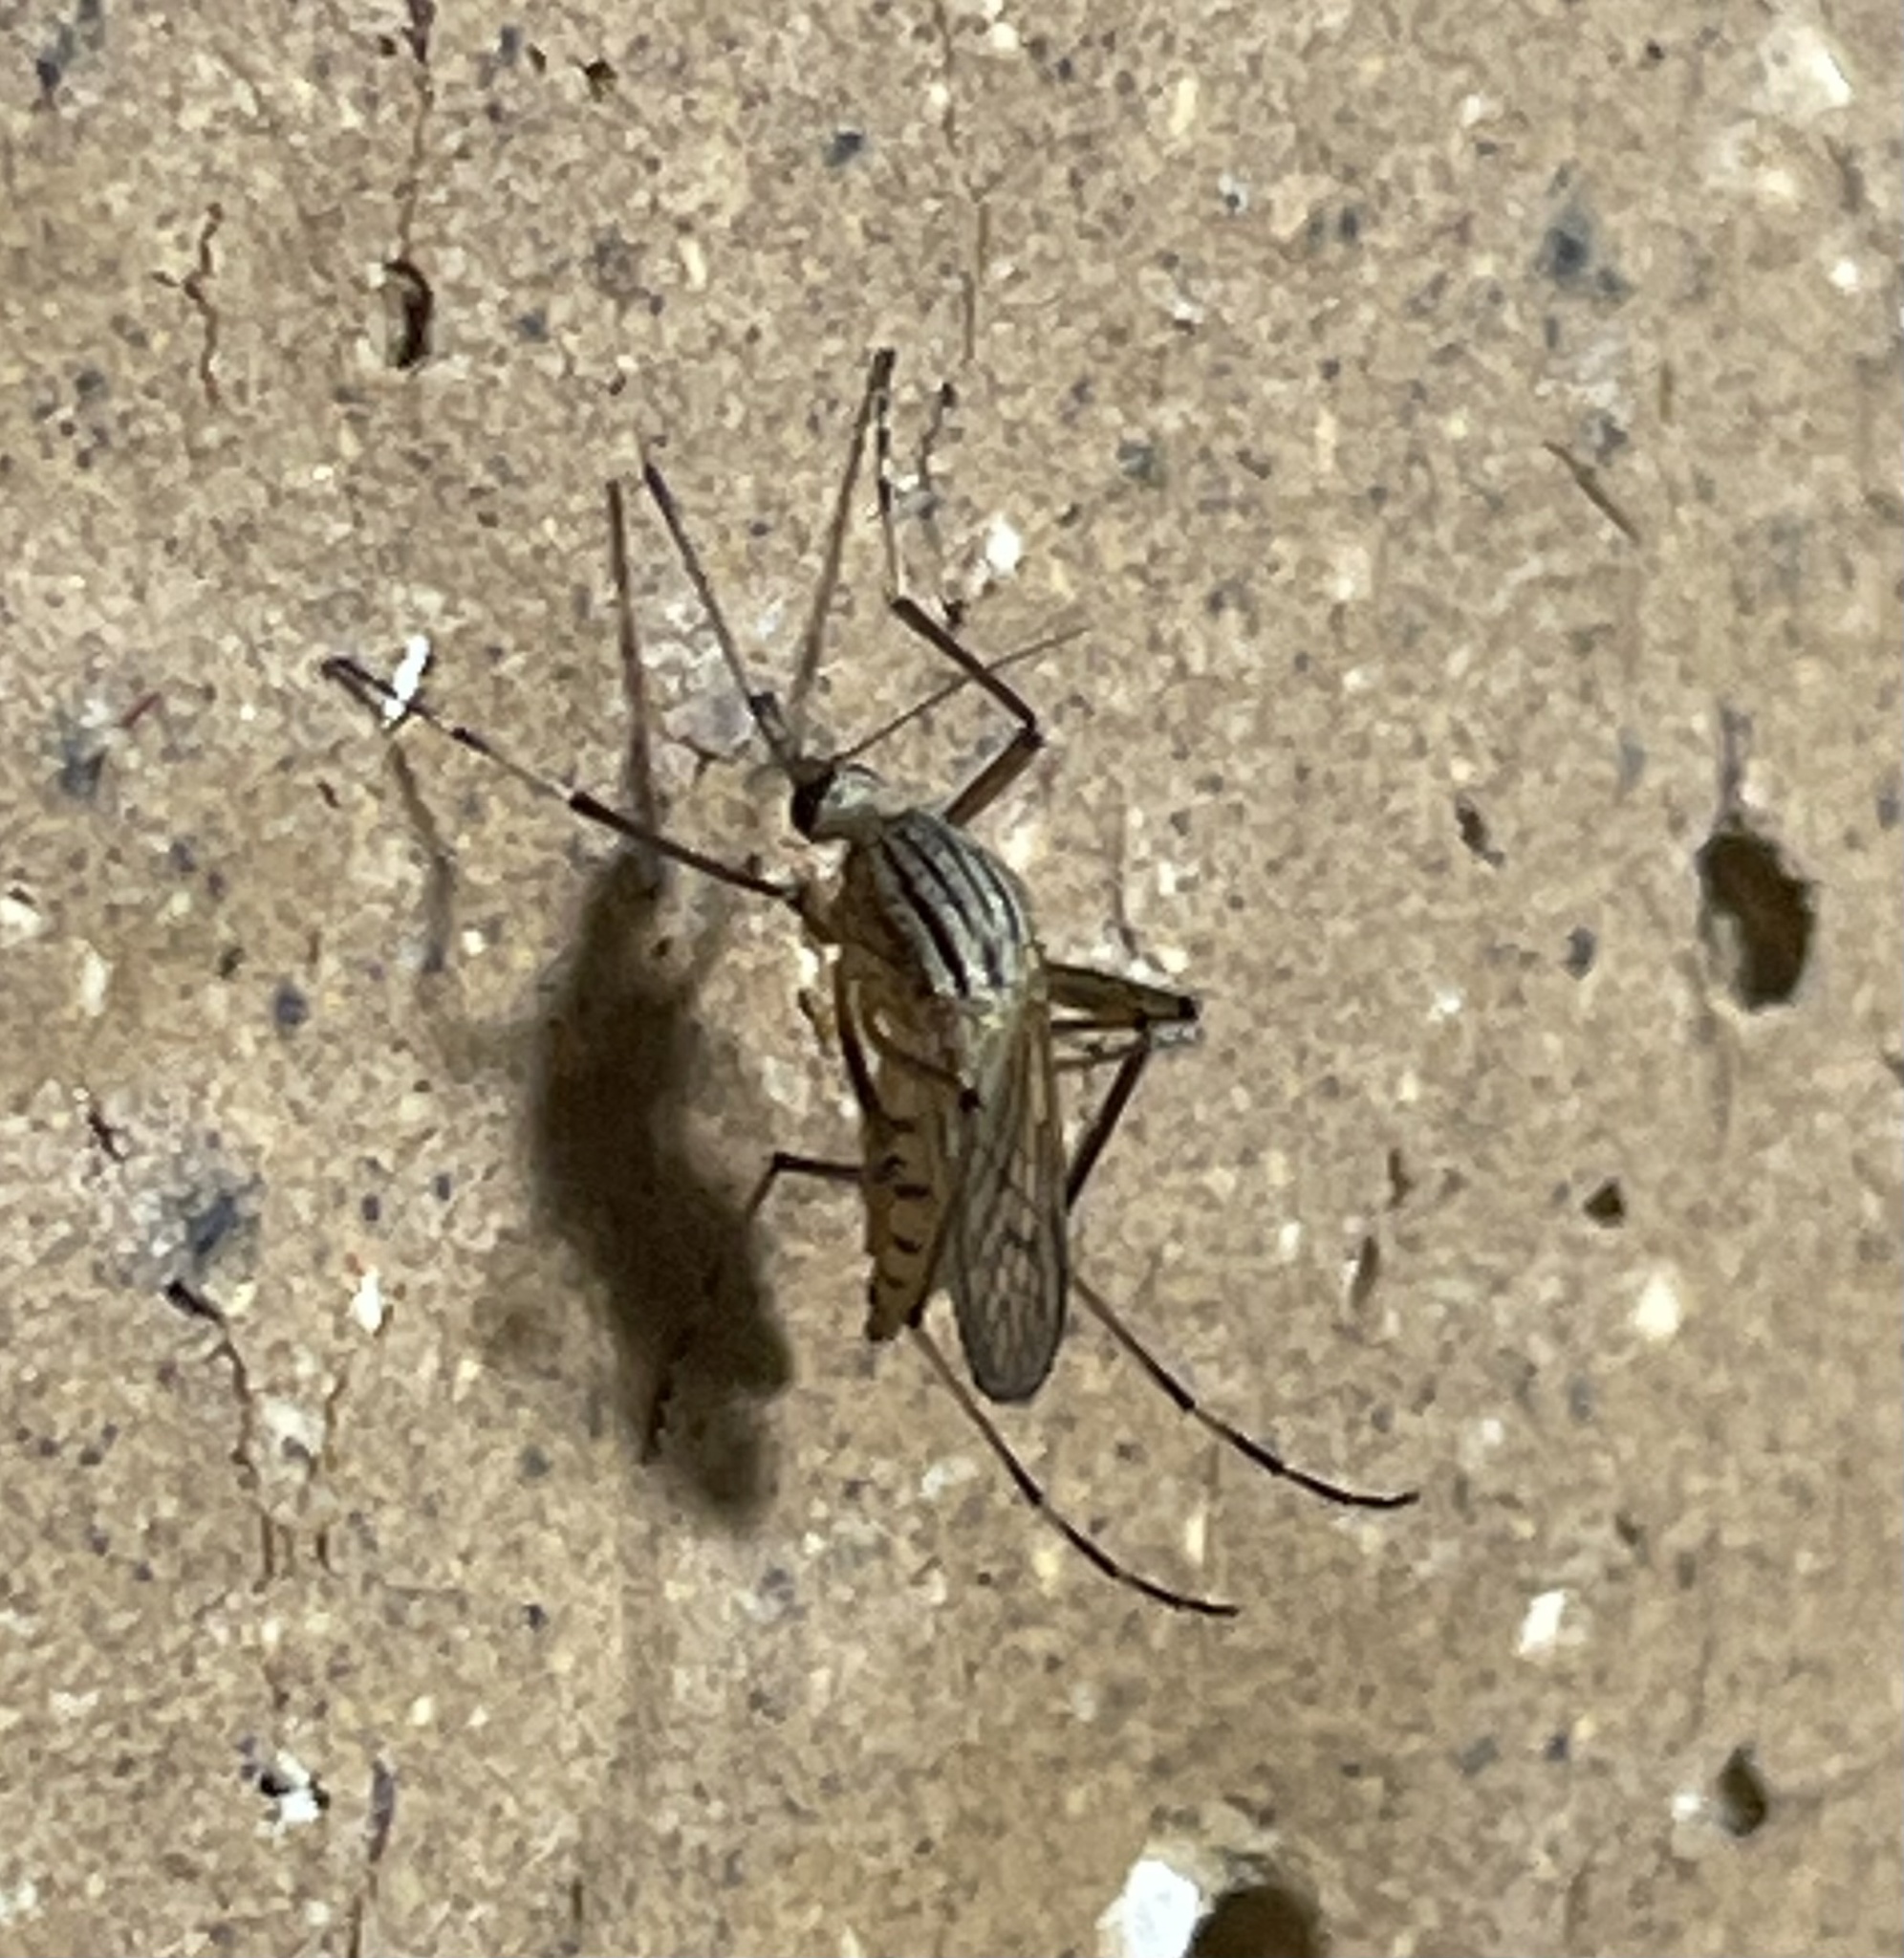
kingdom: Animalia
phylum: Arthropoda
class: Insecta
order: Diptera
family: Culicidae
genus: Aedes
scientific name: Aedes vittiger
